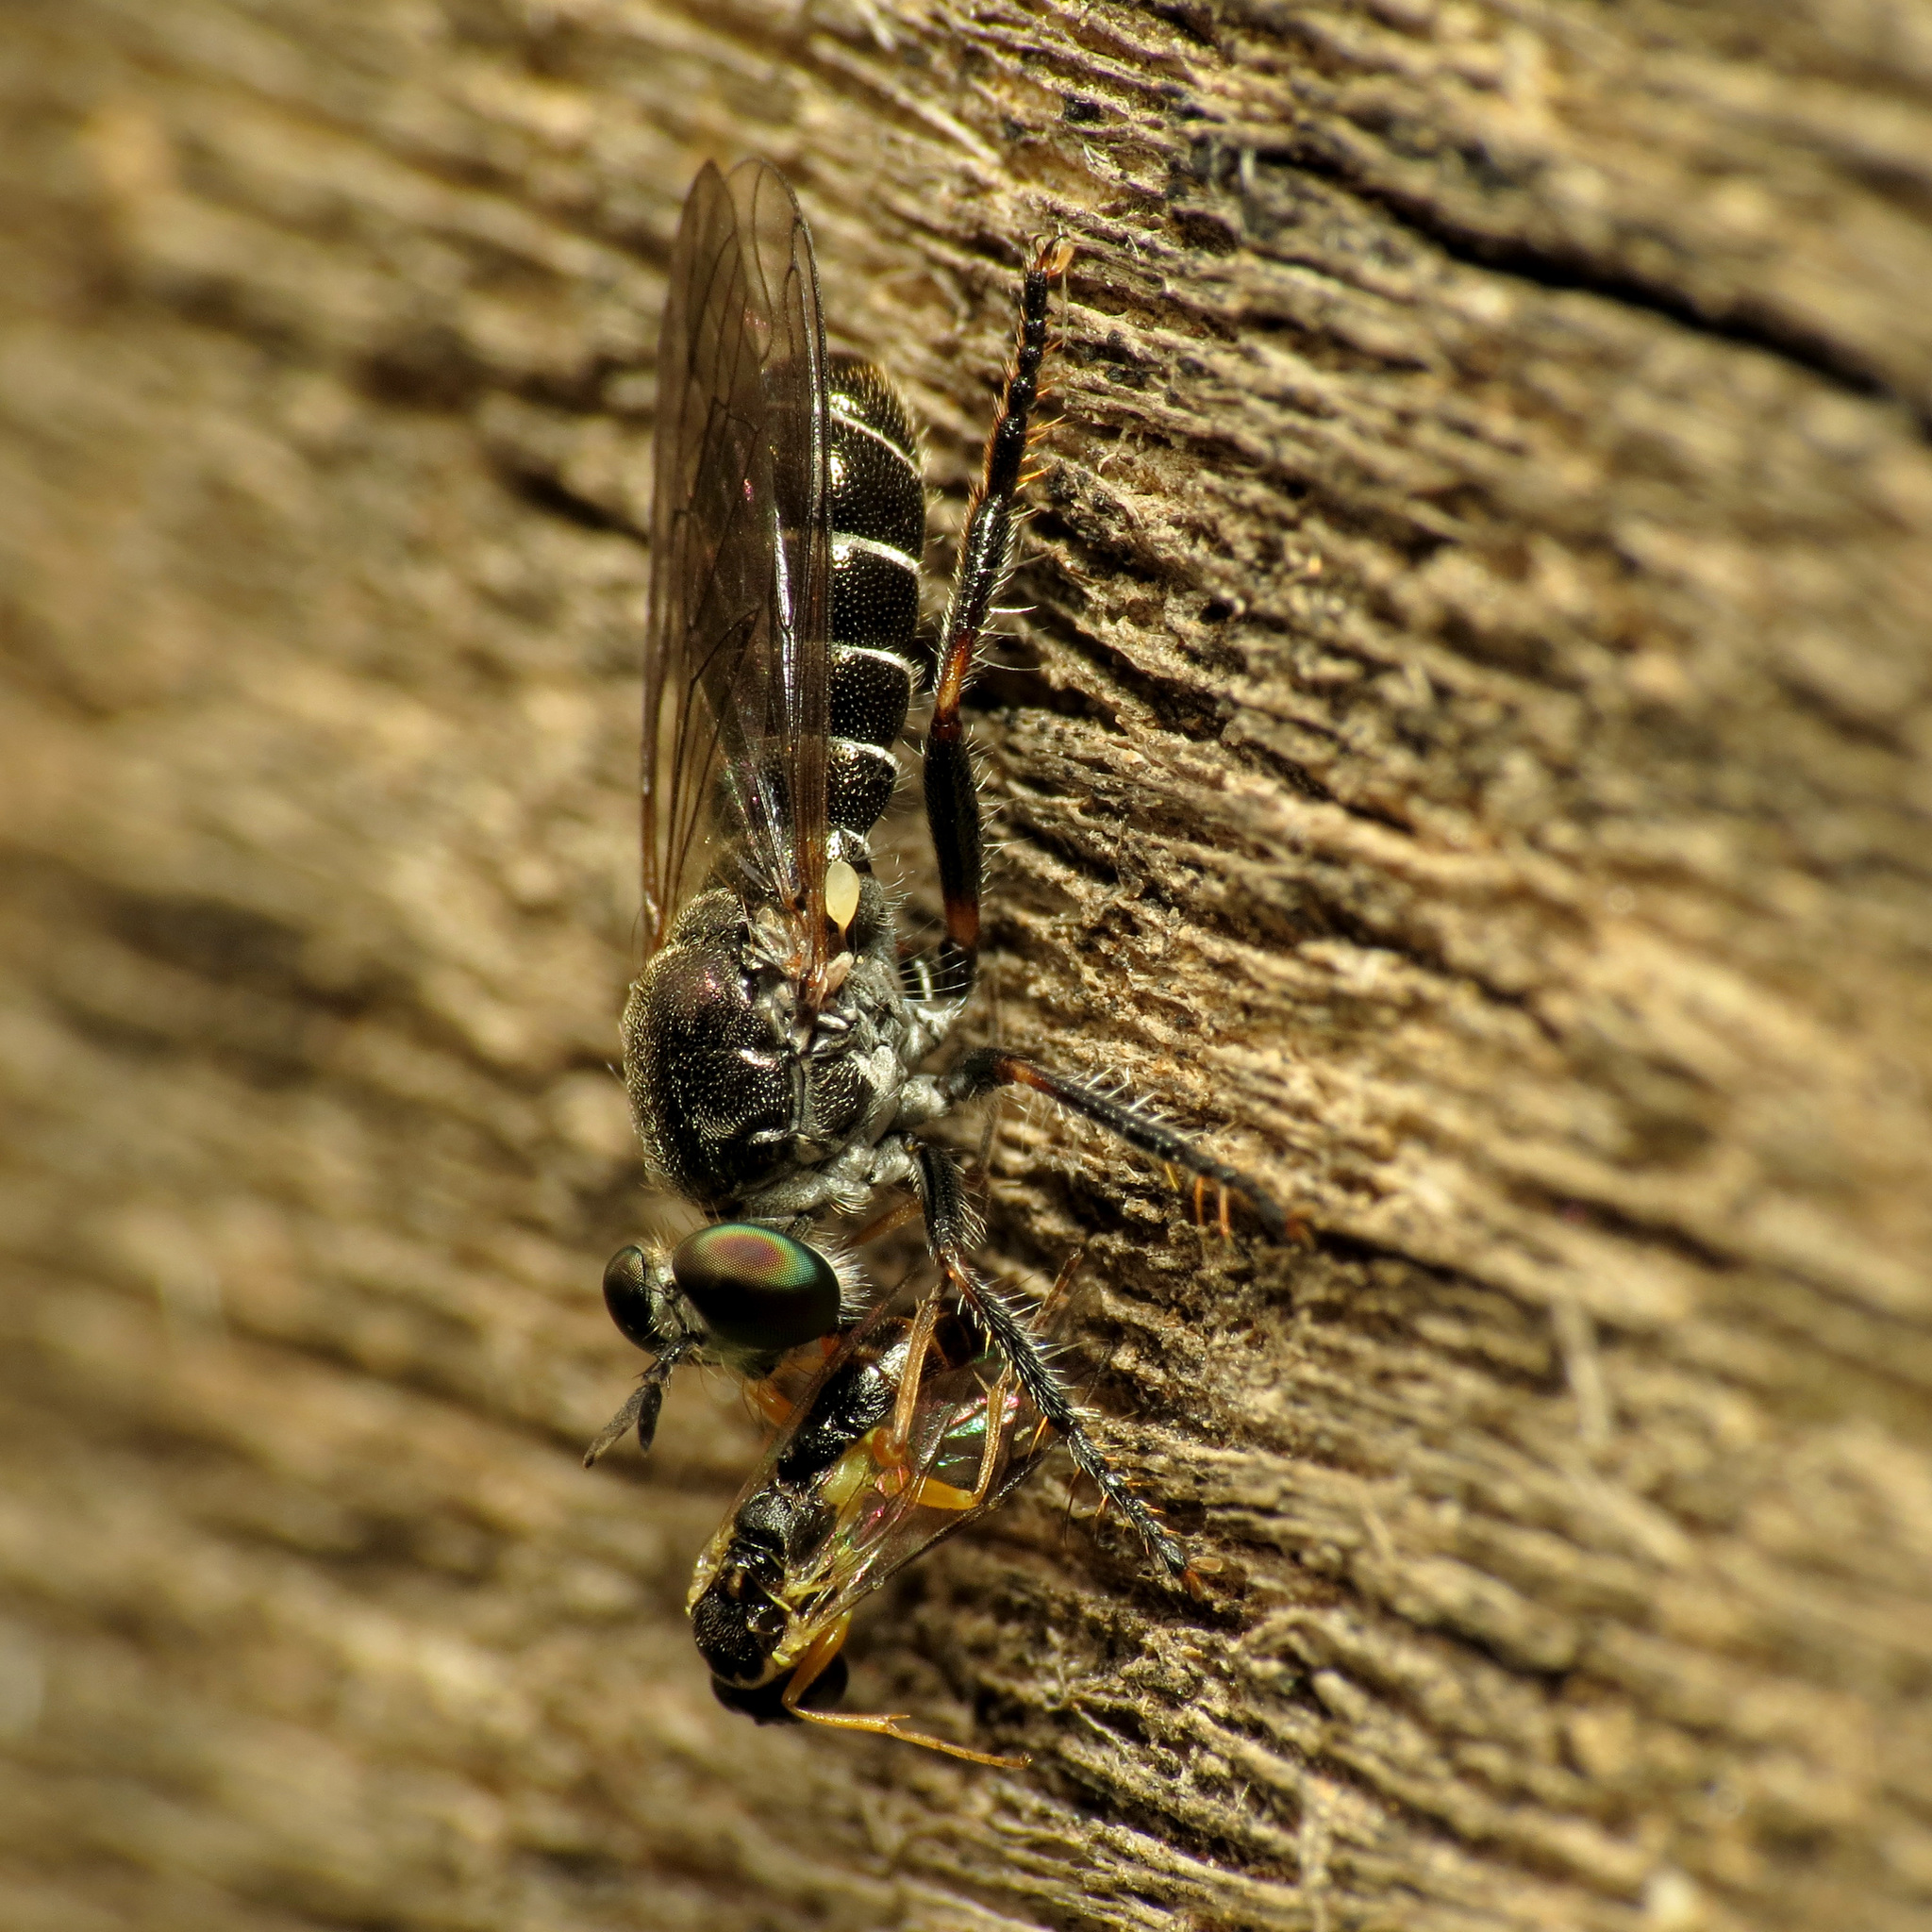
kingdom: Animalia
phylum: Arthropoda
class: Insecta
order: Diptera
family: Asilidae
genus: Atomosia
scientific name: Atomosia puella
